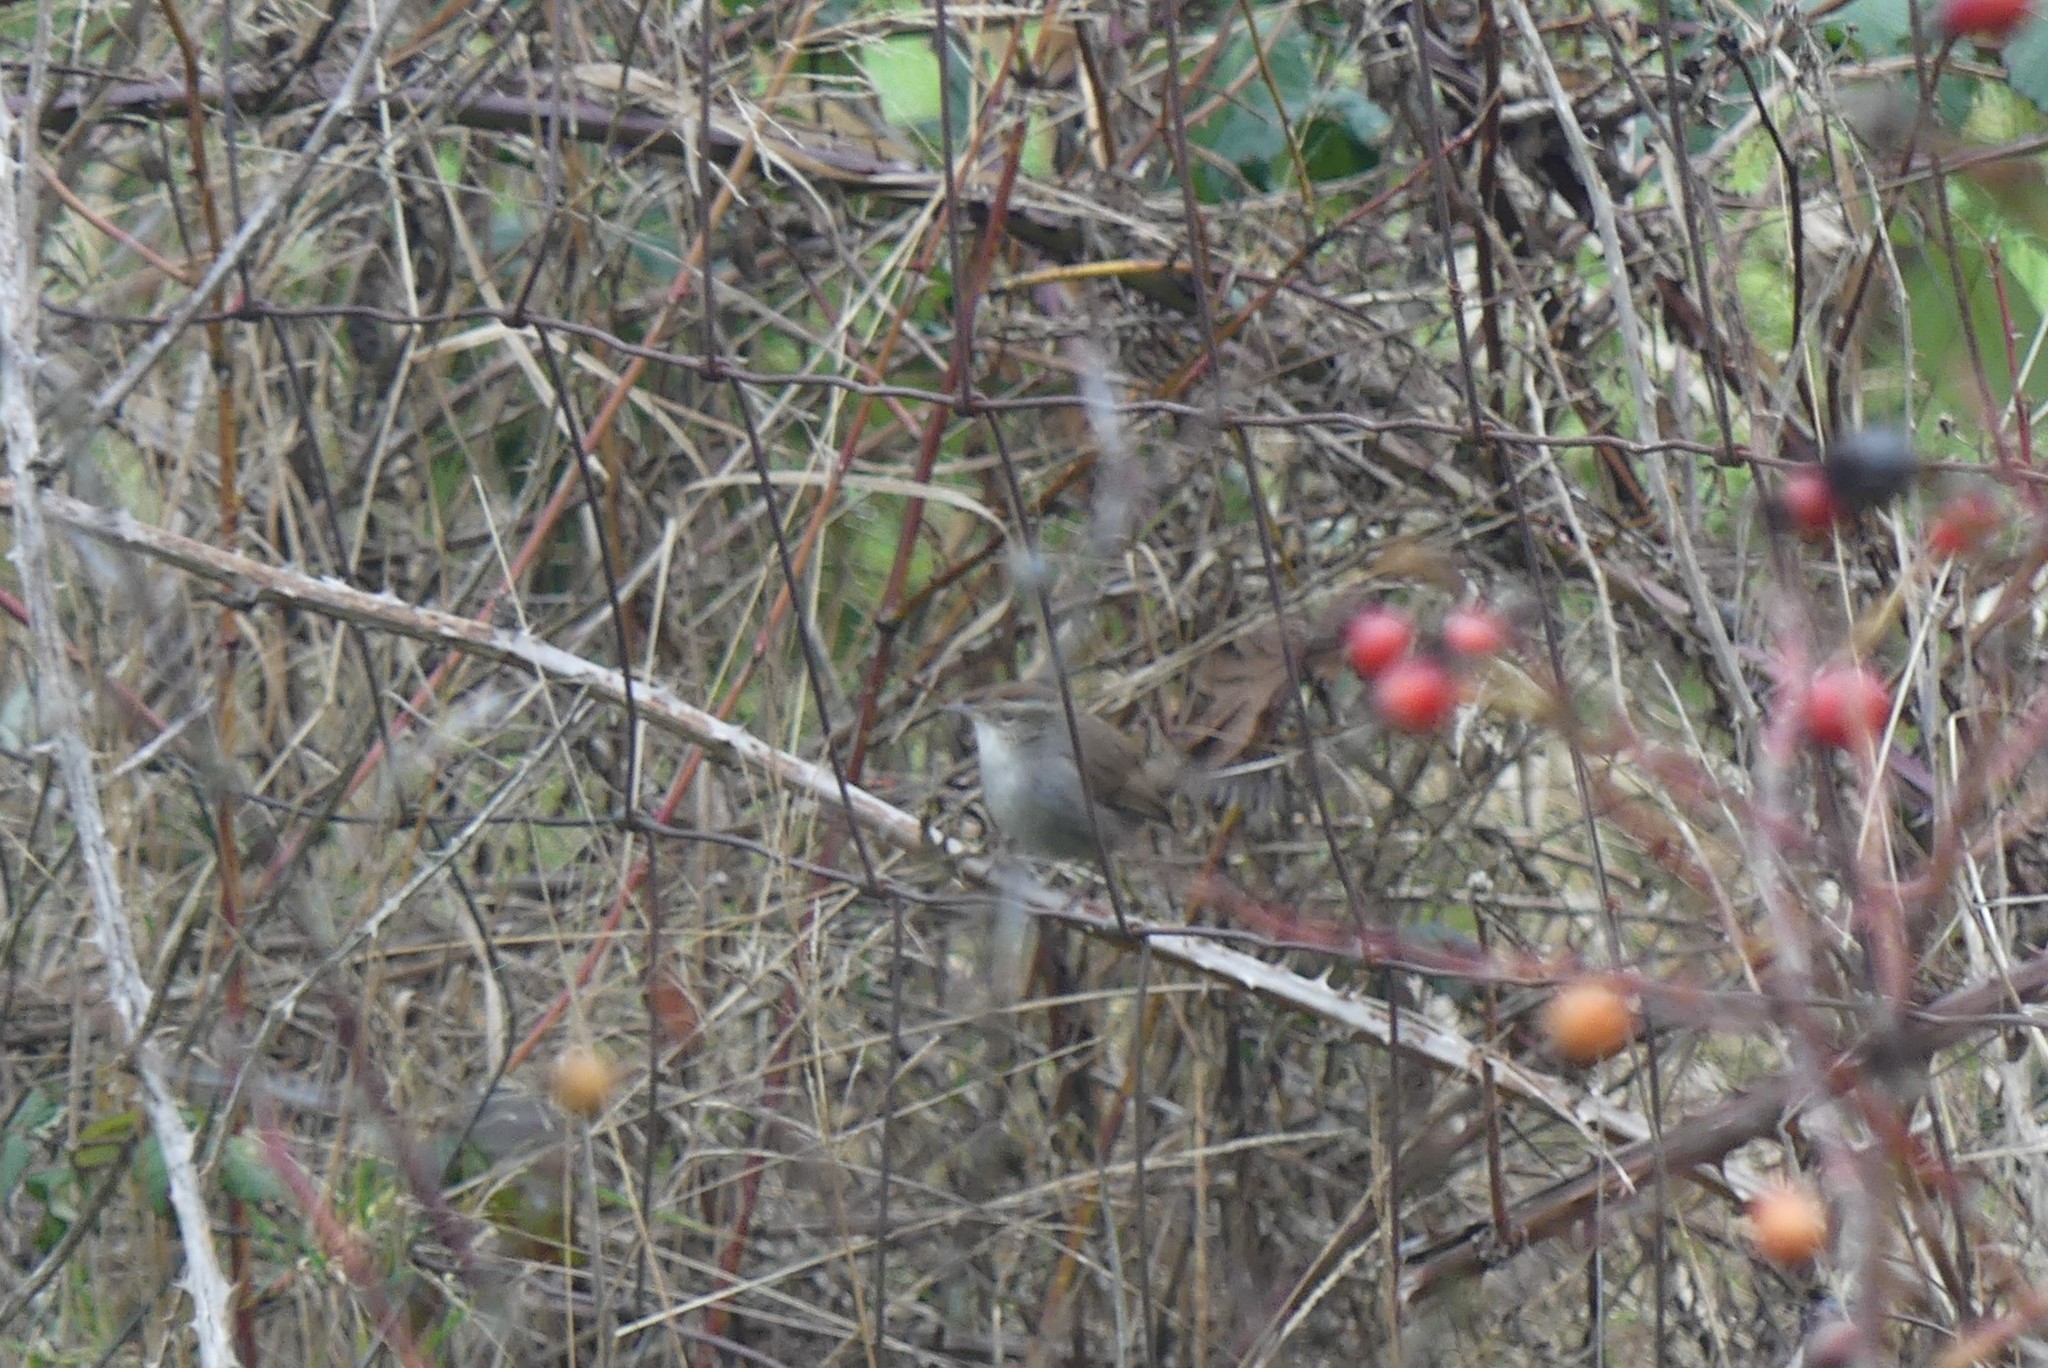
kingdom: Animalia
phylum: Chordata
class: Aves
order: Passeriformes
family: Troglodytidae
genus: Thryomanes
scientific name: Thryomanes bewickii
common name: Bewick's wren
